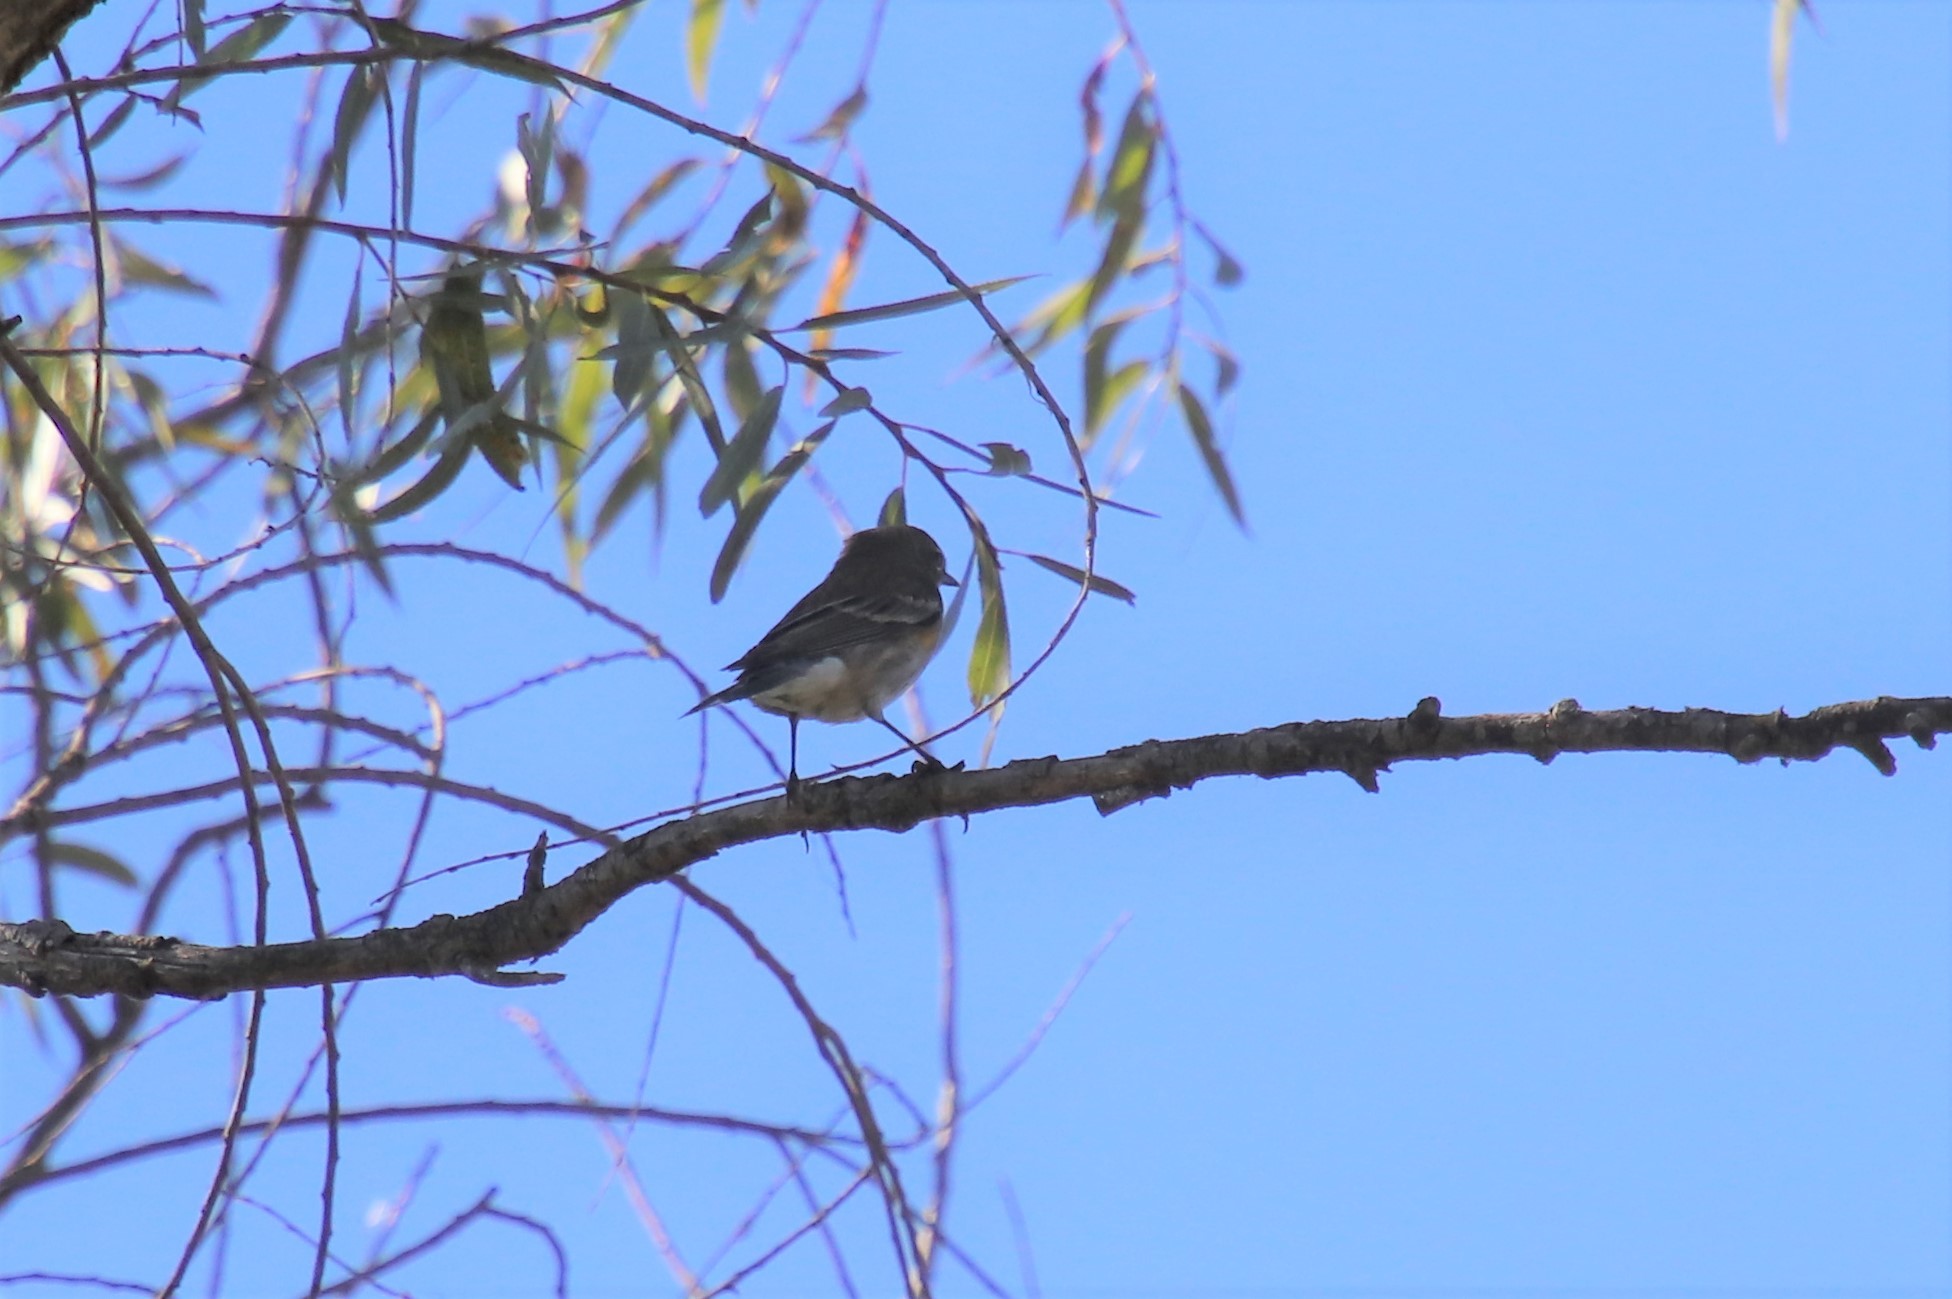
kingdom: Animalia
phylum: Chordata
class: Aves
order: Passeriformes
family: Parulidae
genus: Setophaga
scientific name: Setophaga auduboni
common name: Audubon's warbler
